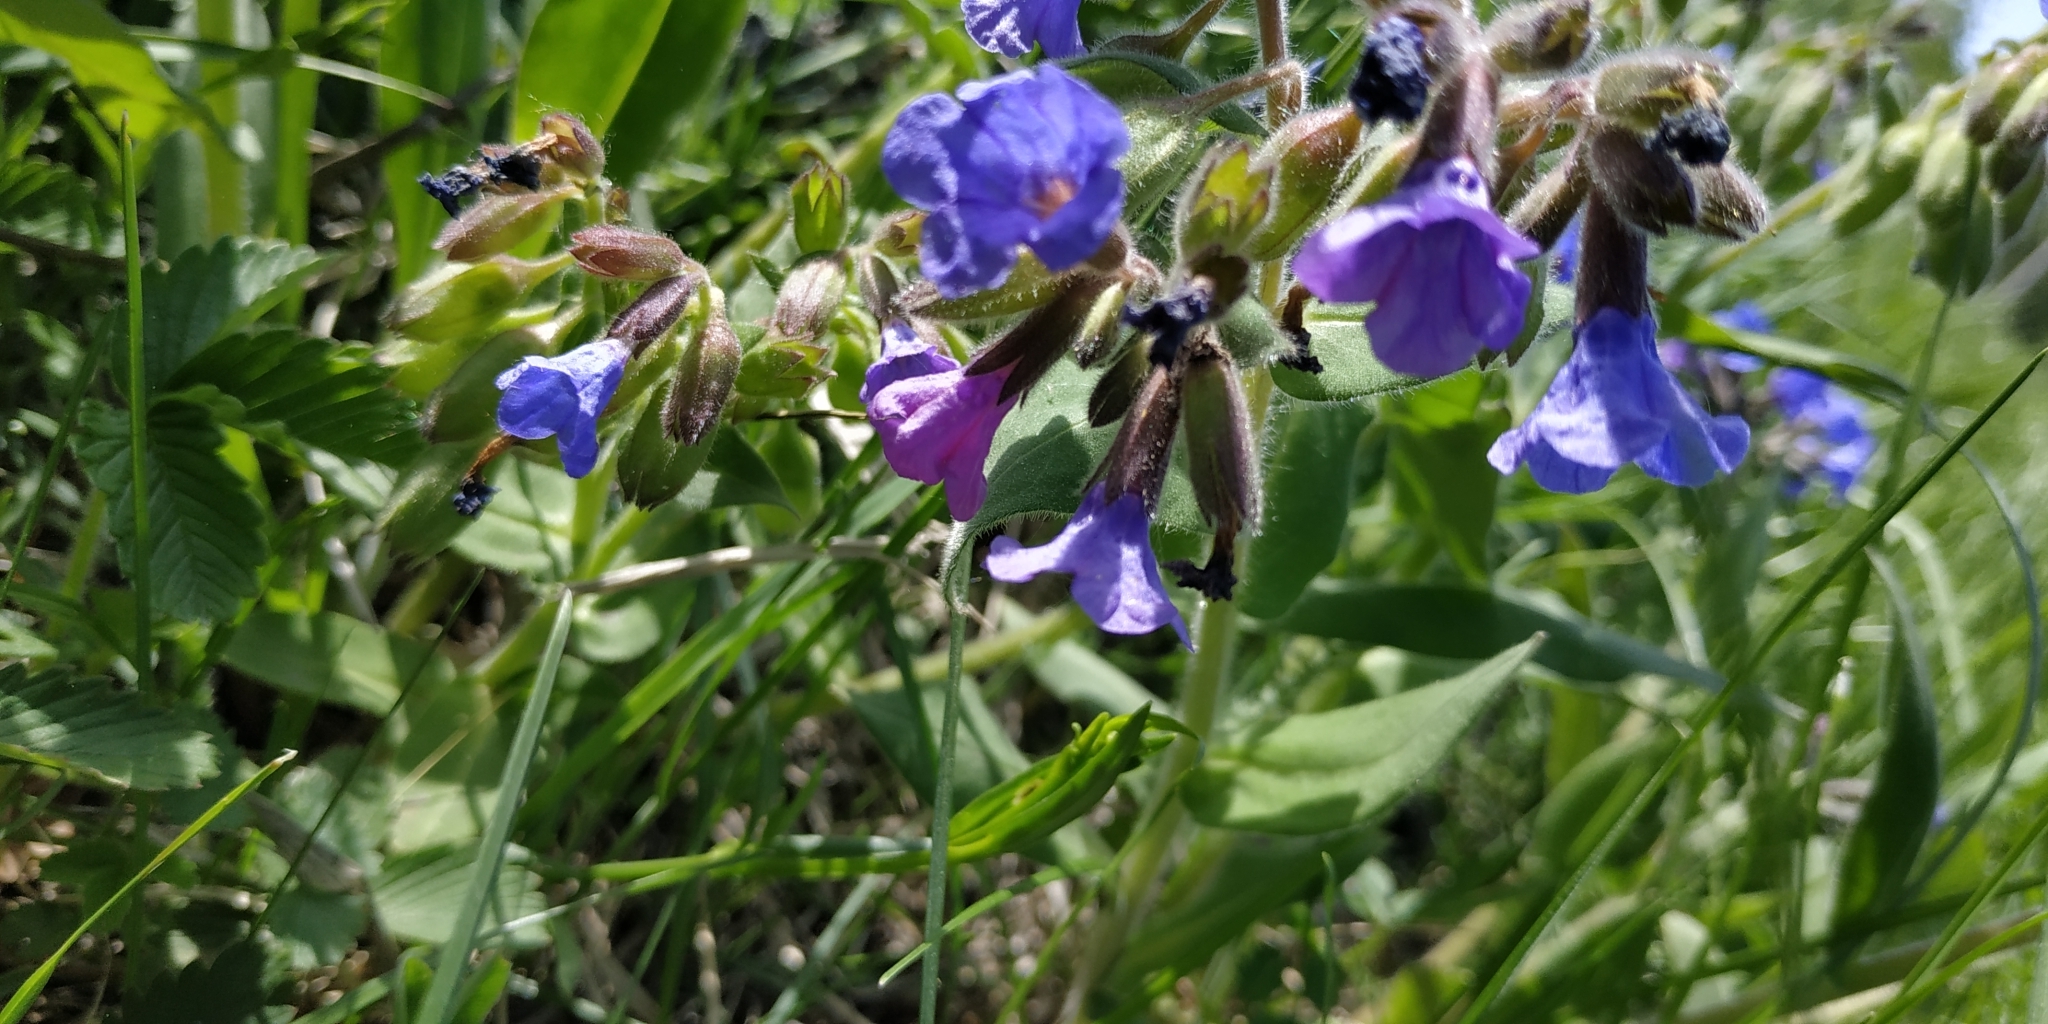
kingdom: Plantae
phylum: Tracheophyta
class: Magnoliopsida
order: Boraginales
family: Boraginaceae
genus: Pulmonaria
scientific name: Pulmonaria mollis
